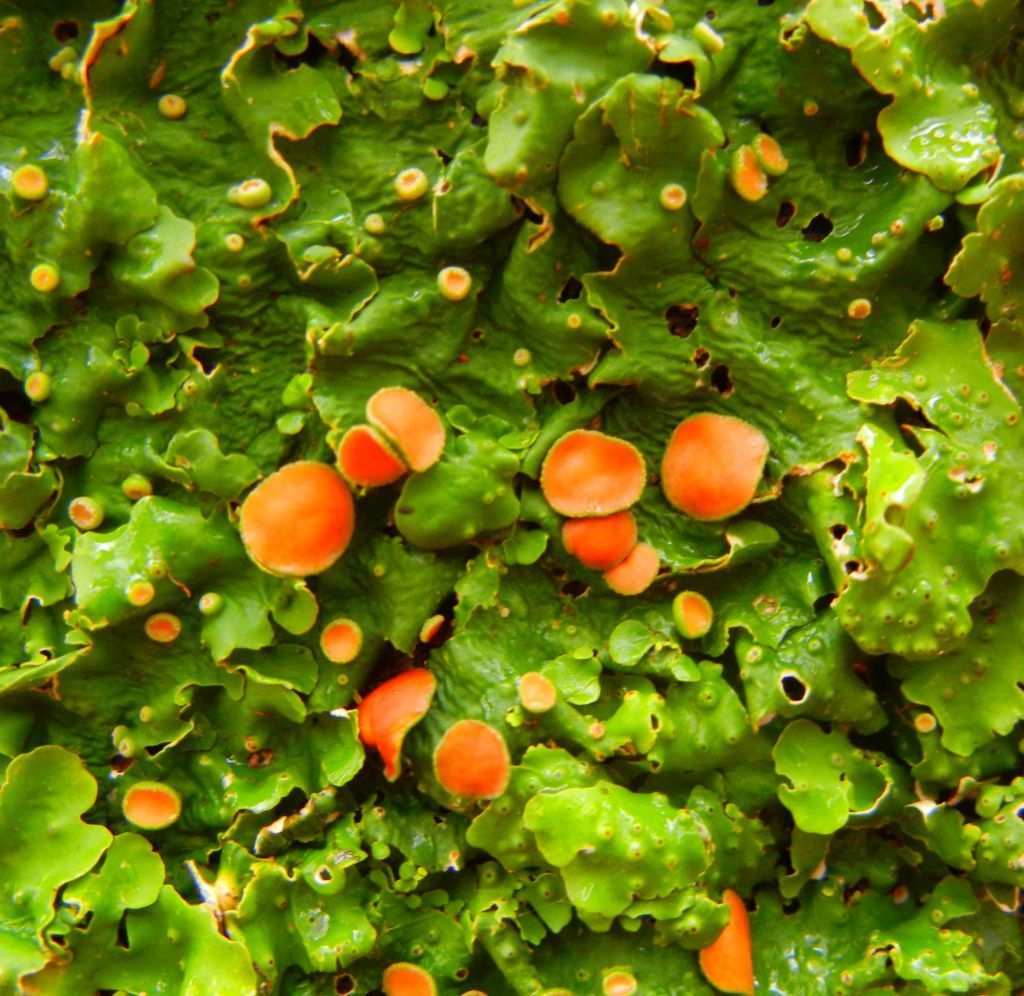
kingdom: Fungi
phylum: Ascomycota
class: Lecanoromycetes
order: Peltigerales
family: Lobariaceae
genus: Ricasolia
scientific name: Ricasolia virens
